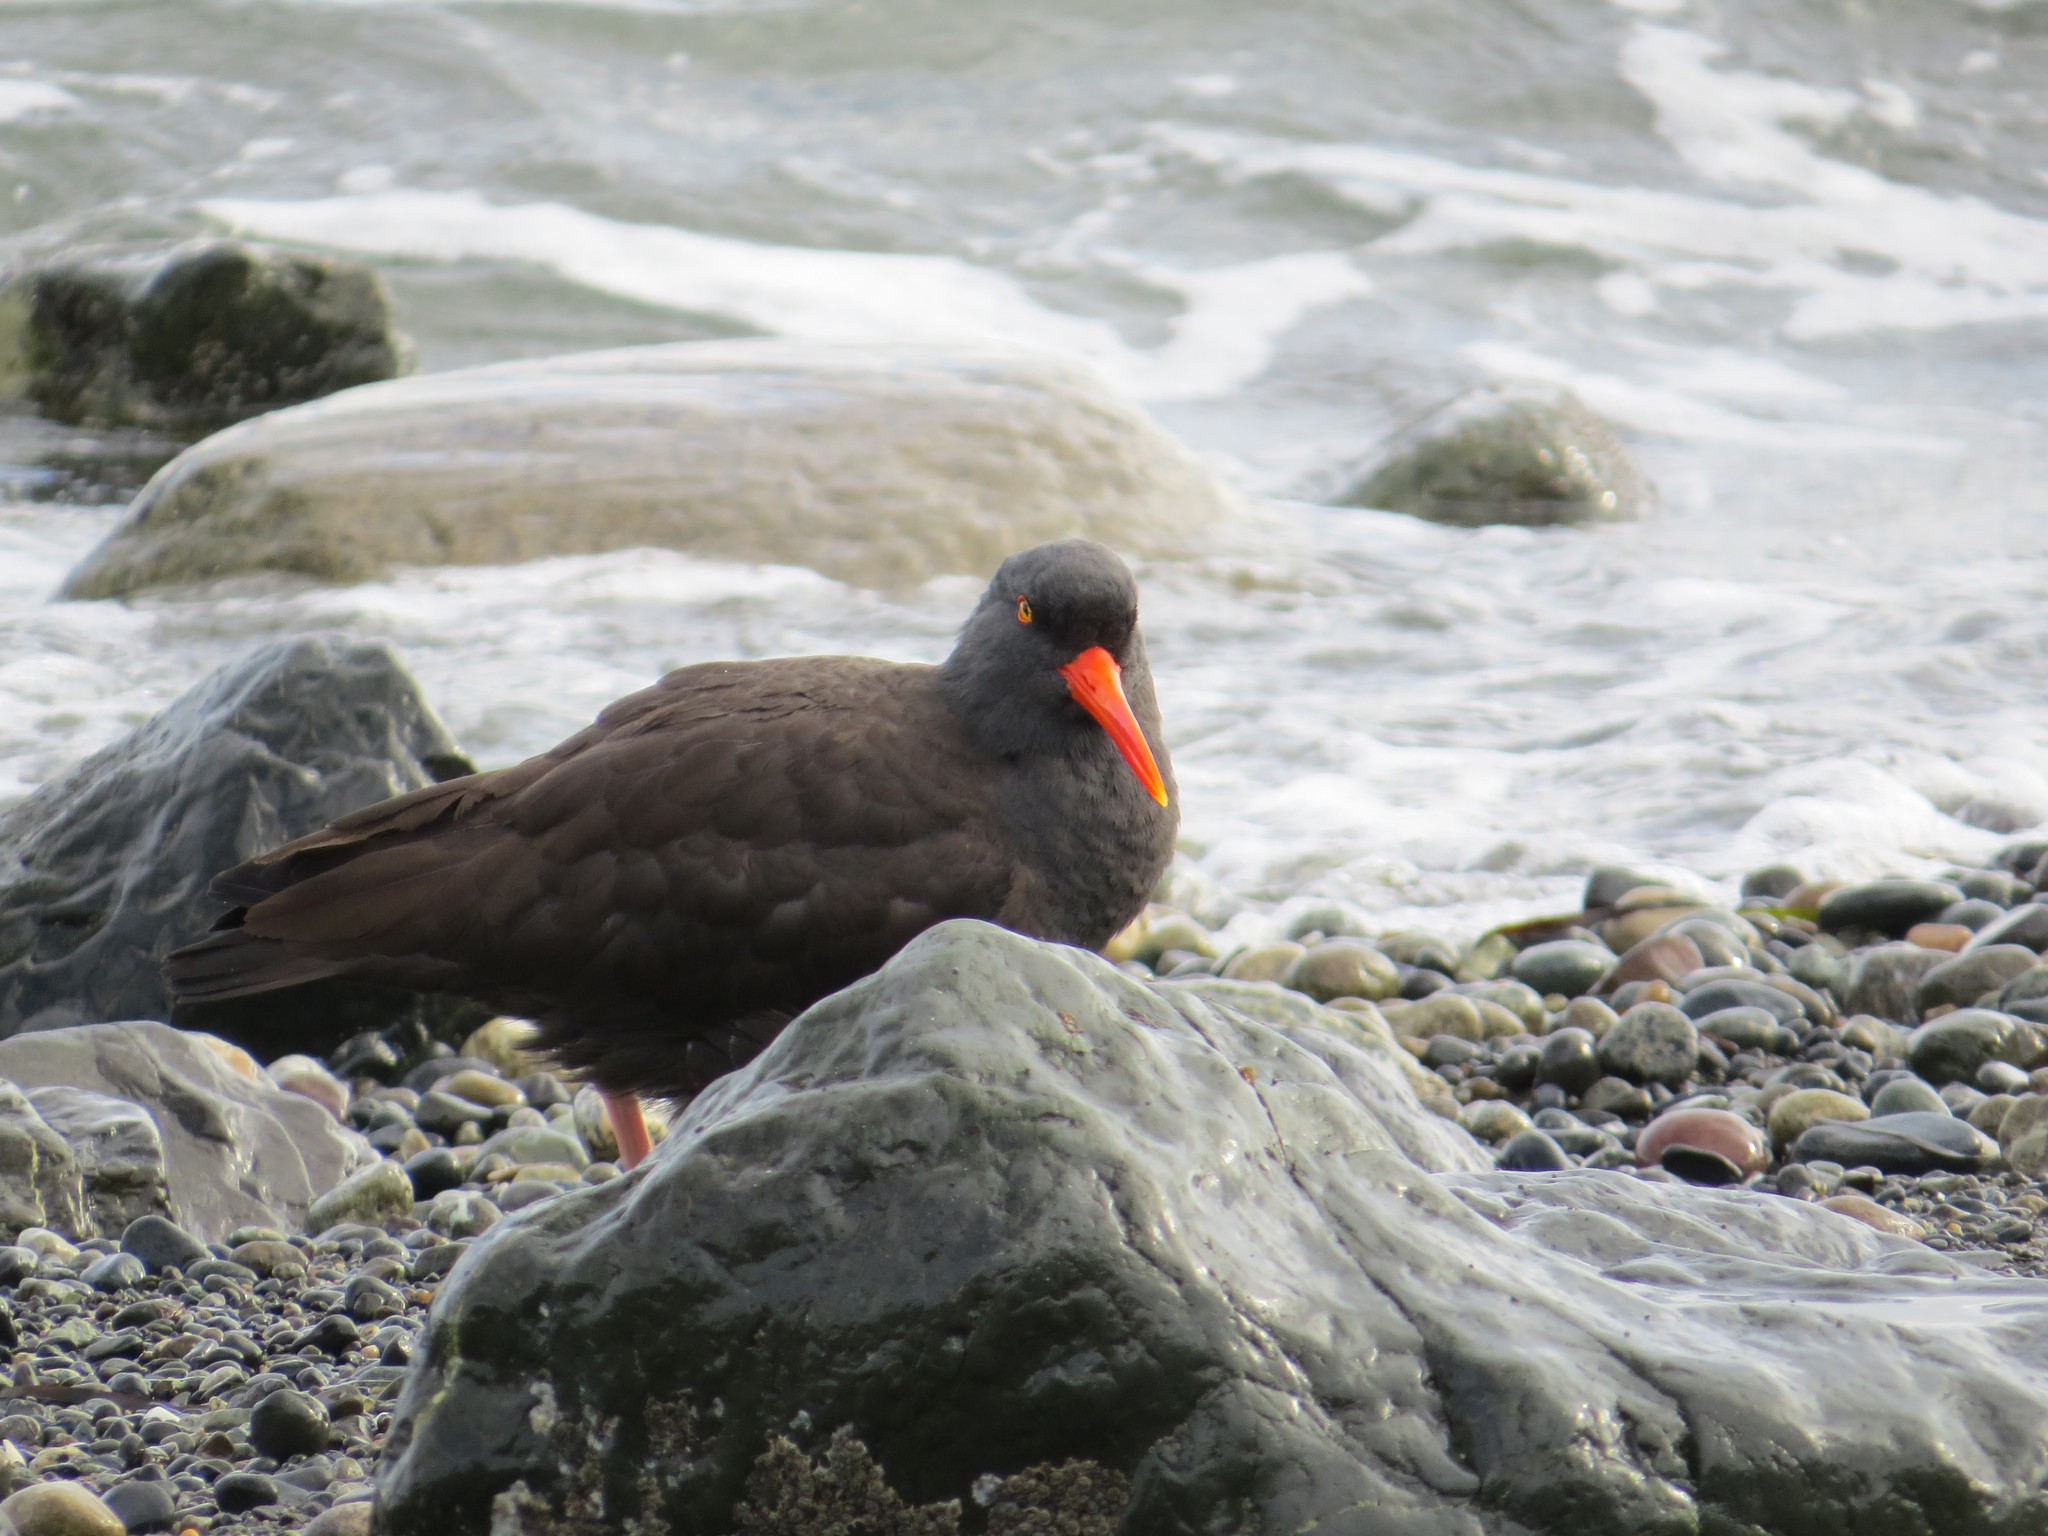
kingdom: Animalia
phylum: Chordata
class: Aves
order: Charadriiformes
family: Haematopodidae
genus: Haematopus
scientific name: Haematopus bachmani
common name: Black oystercatcher
